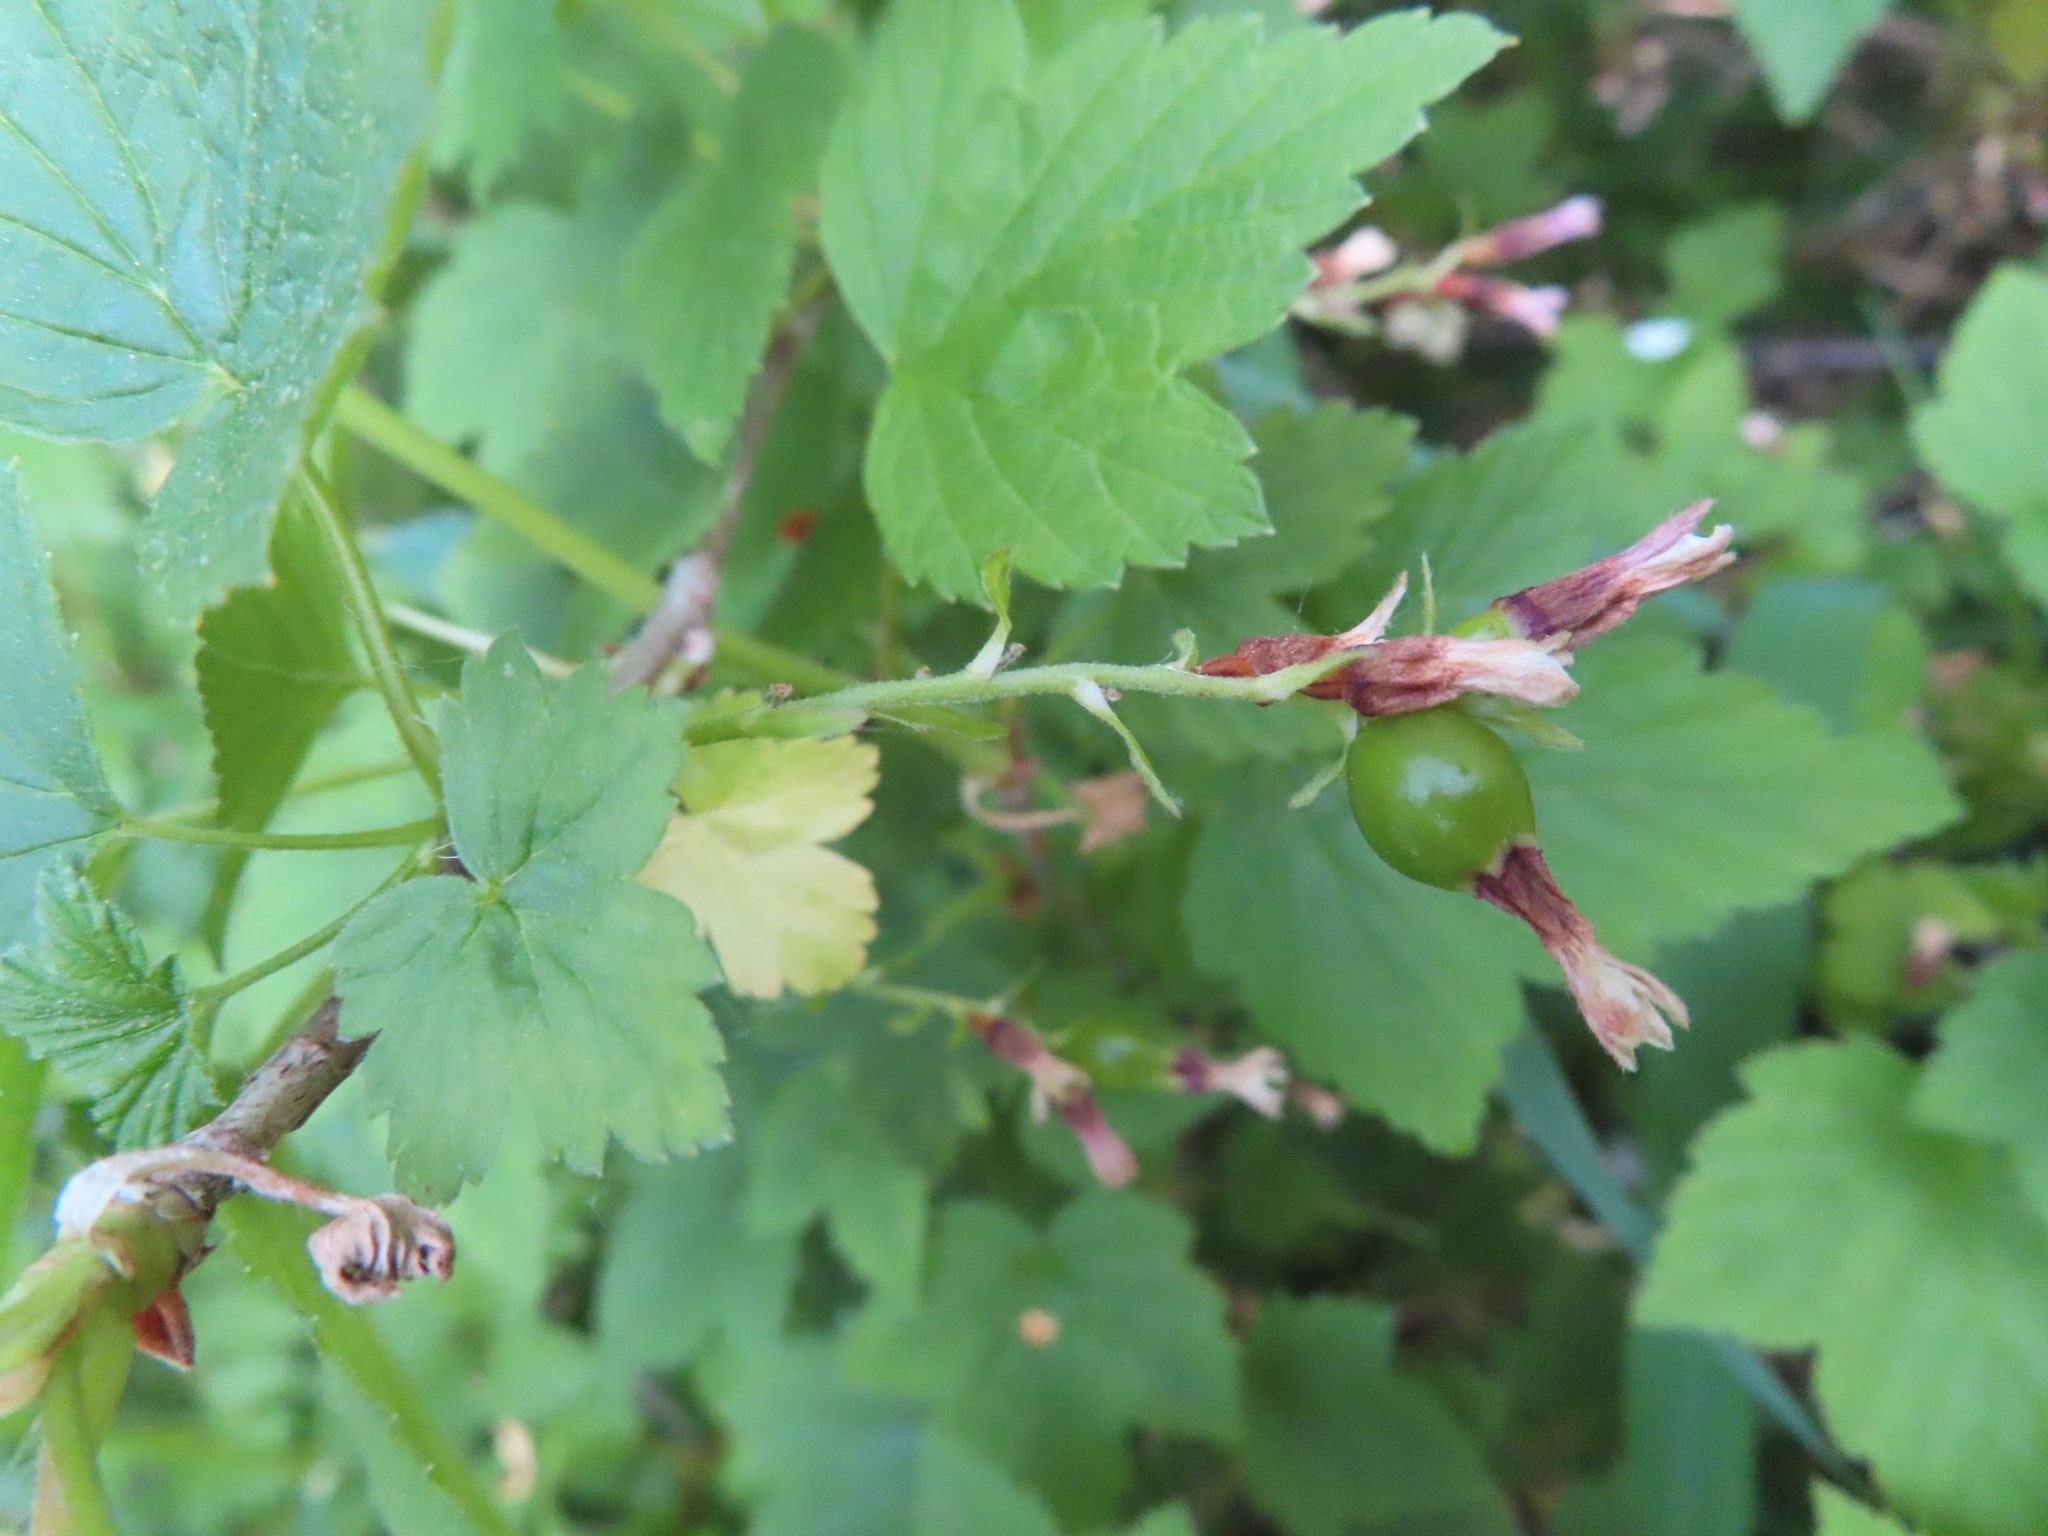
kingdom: Plantae
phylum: Tracheophyta
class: Magnoliopsida
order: Saxifragales
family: Grossulariaceae
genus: Ribes
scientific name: Ribes americanum
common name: American black currant
